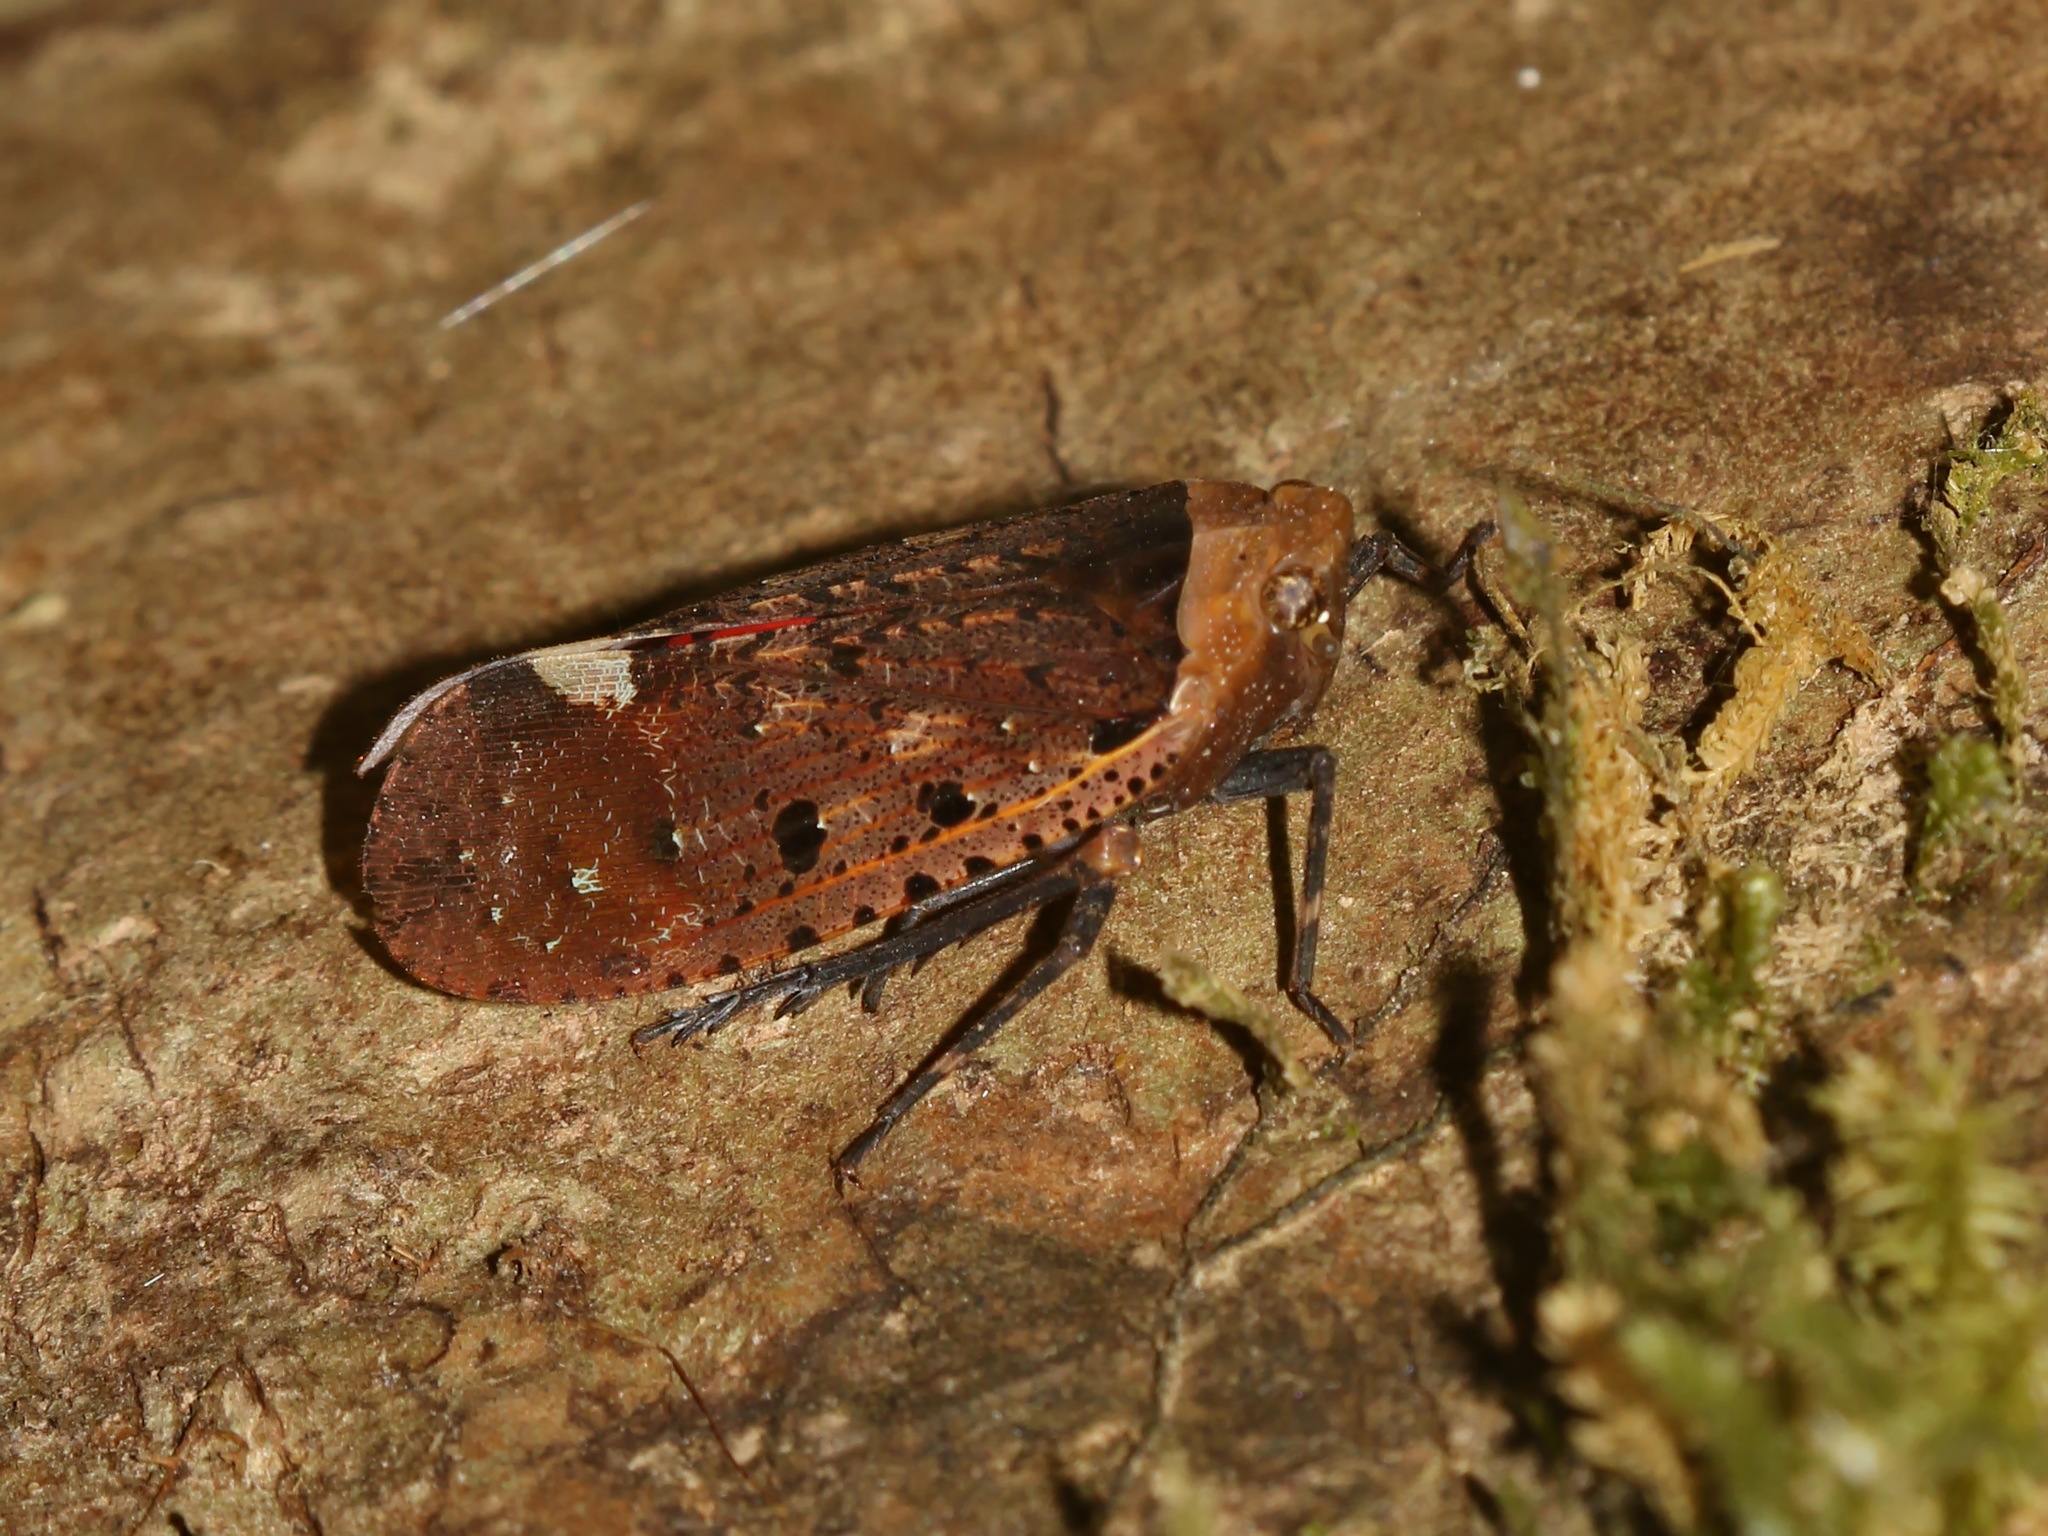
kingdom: Animalia
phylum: Arthropoda
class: Insecta
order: Hemiptera
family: Fulgoridae
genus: Penthicodes
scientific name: Penthicodes warleti
